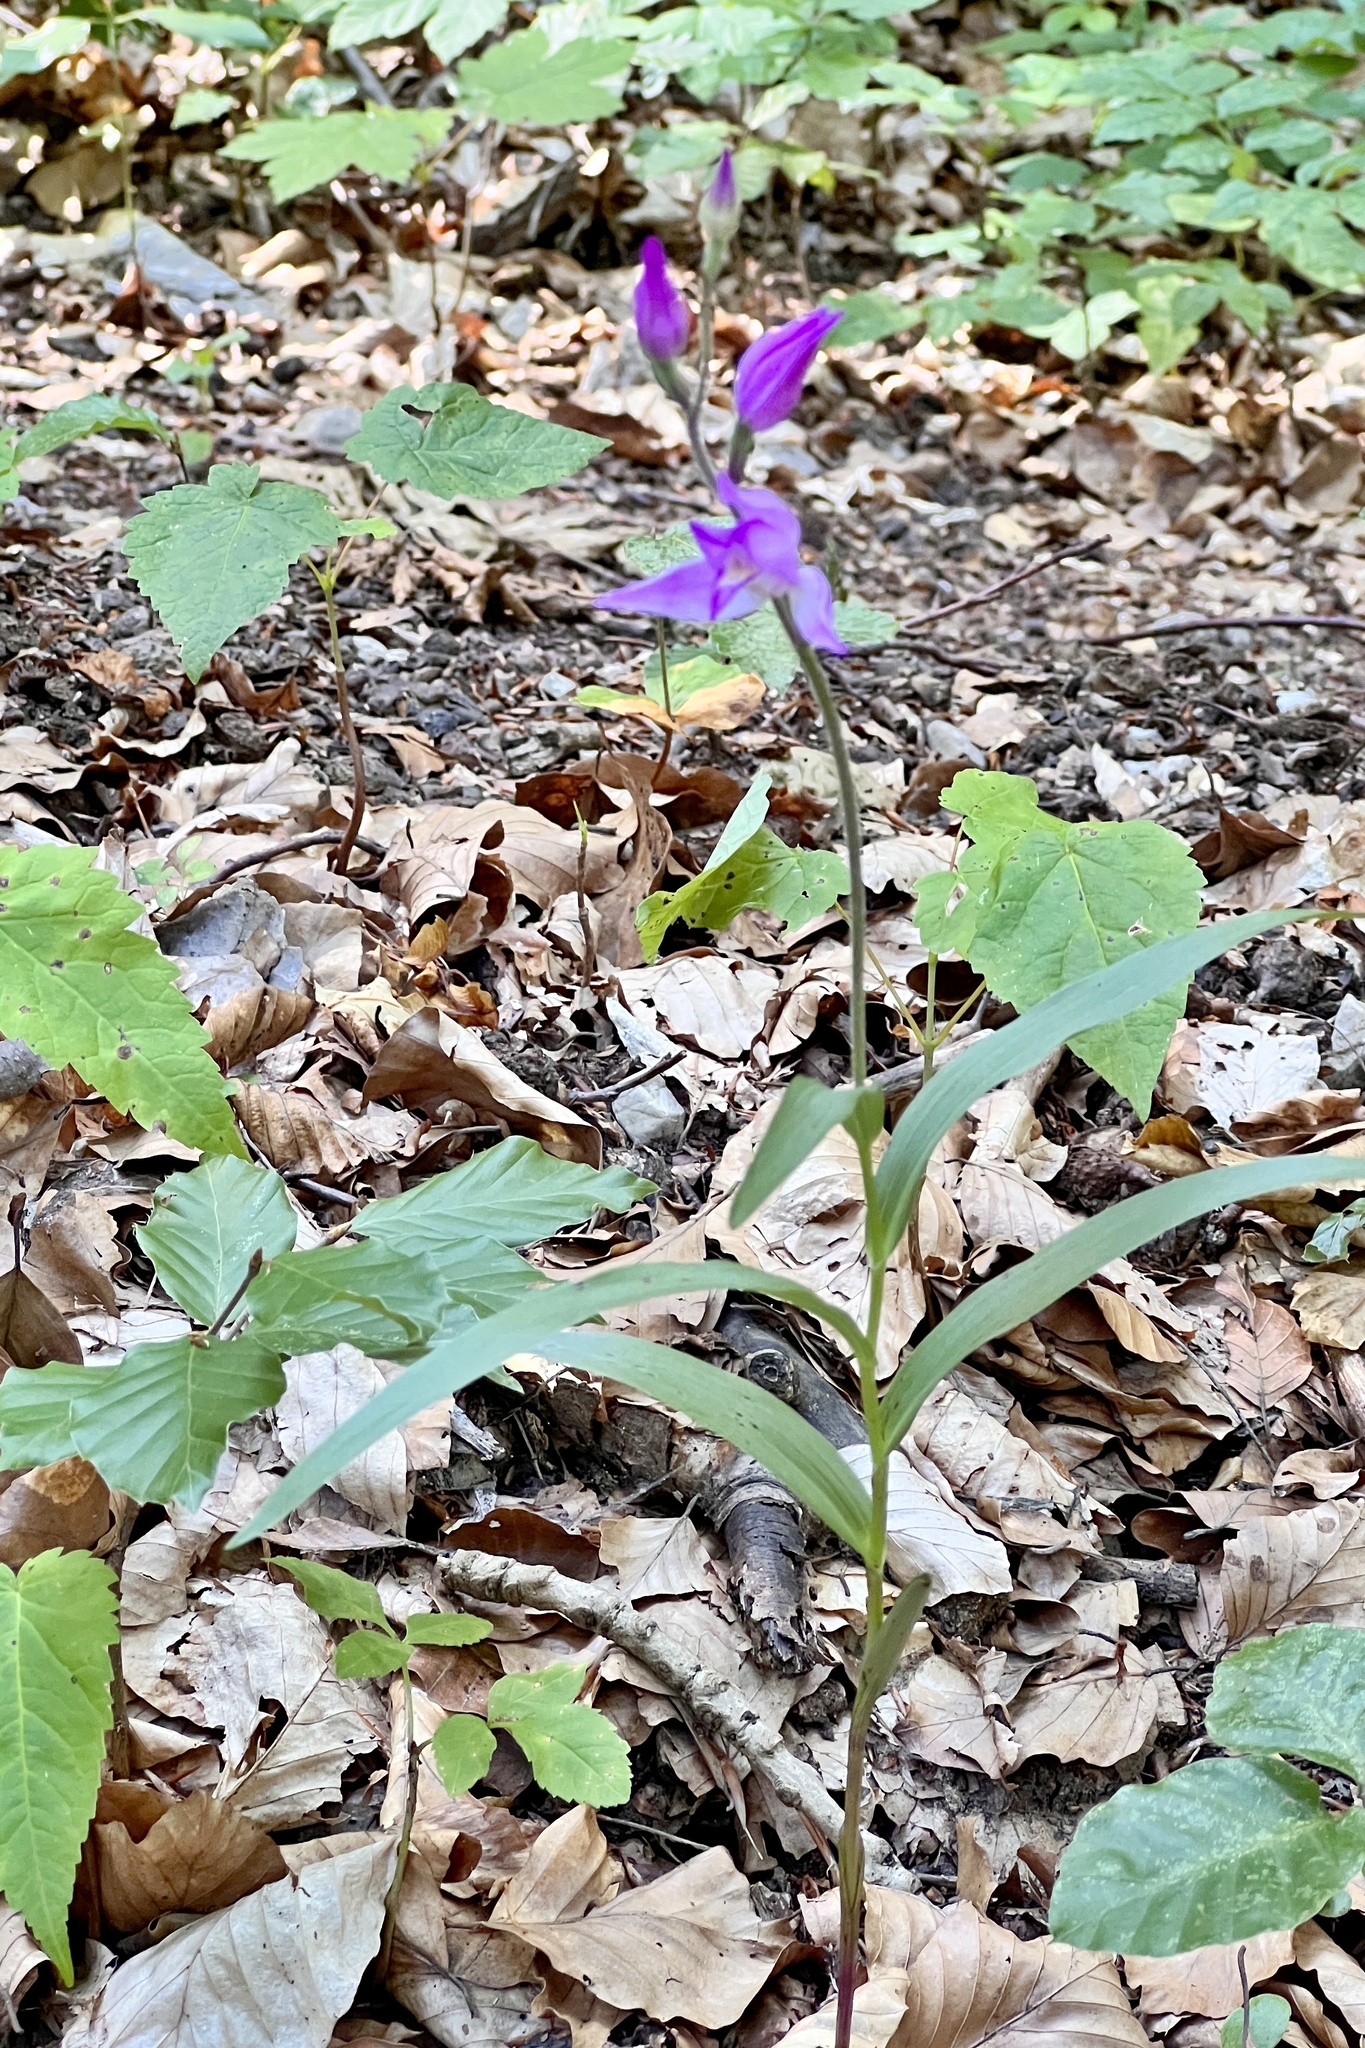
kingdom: Plantae
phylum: Tracheophyta
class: Liliopsida
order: Asparagales
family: Orchidaceae
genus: Cephalanthera
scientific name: Cephalanthera rubra
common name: Red helleborine
